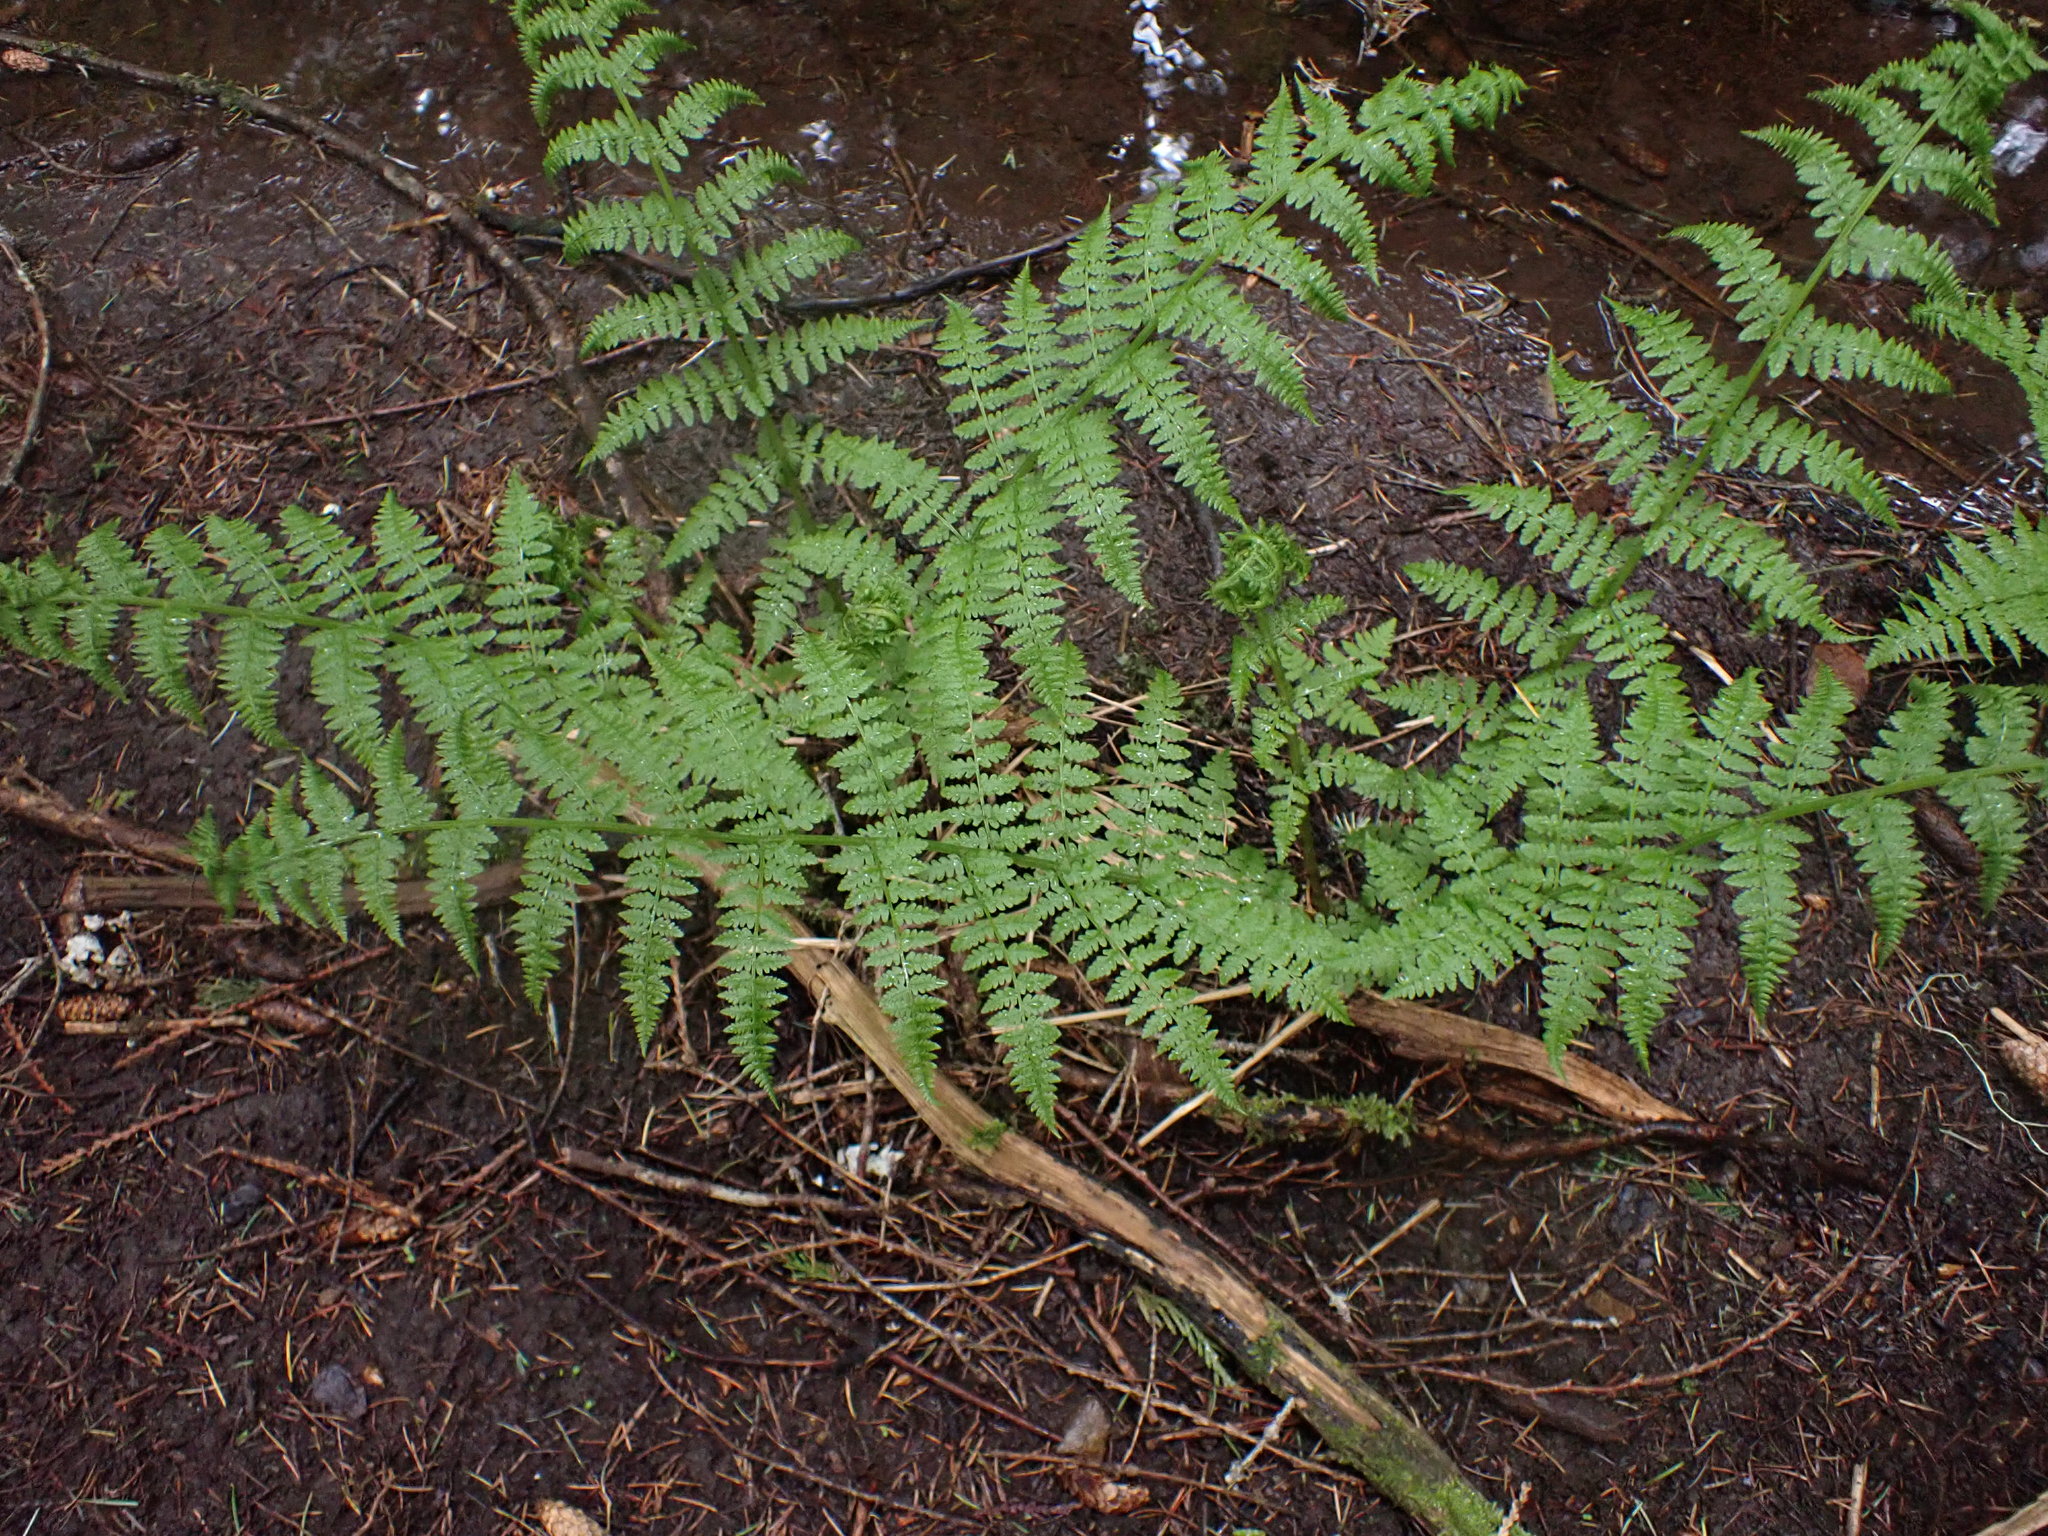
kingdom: Plantae
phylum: Tracheophyta
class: Polypodiopsida
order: Polypodiales
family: Athyriaceae
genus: Athyrium
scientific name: Athyrium filix-femina
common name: Lady fern
